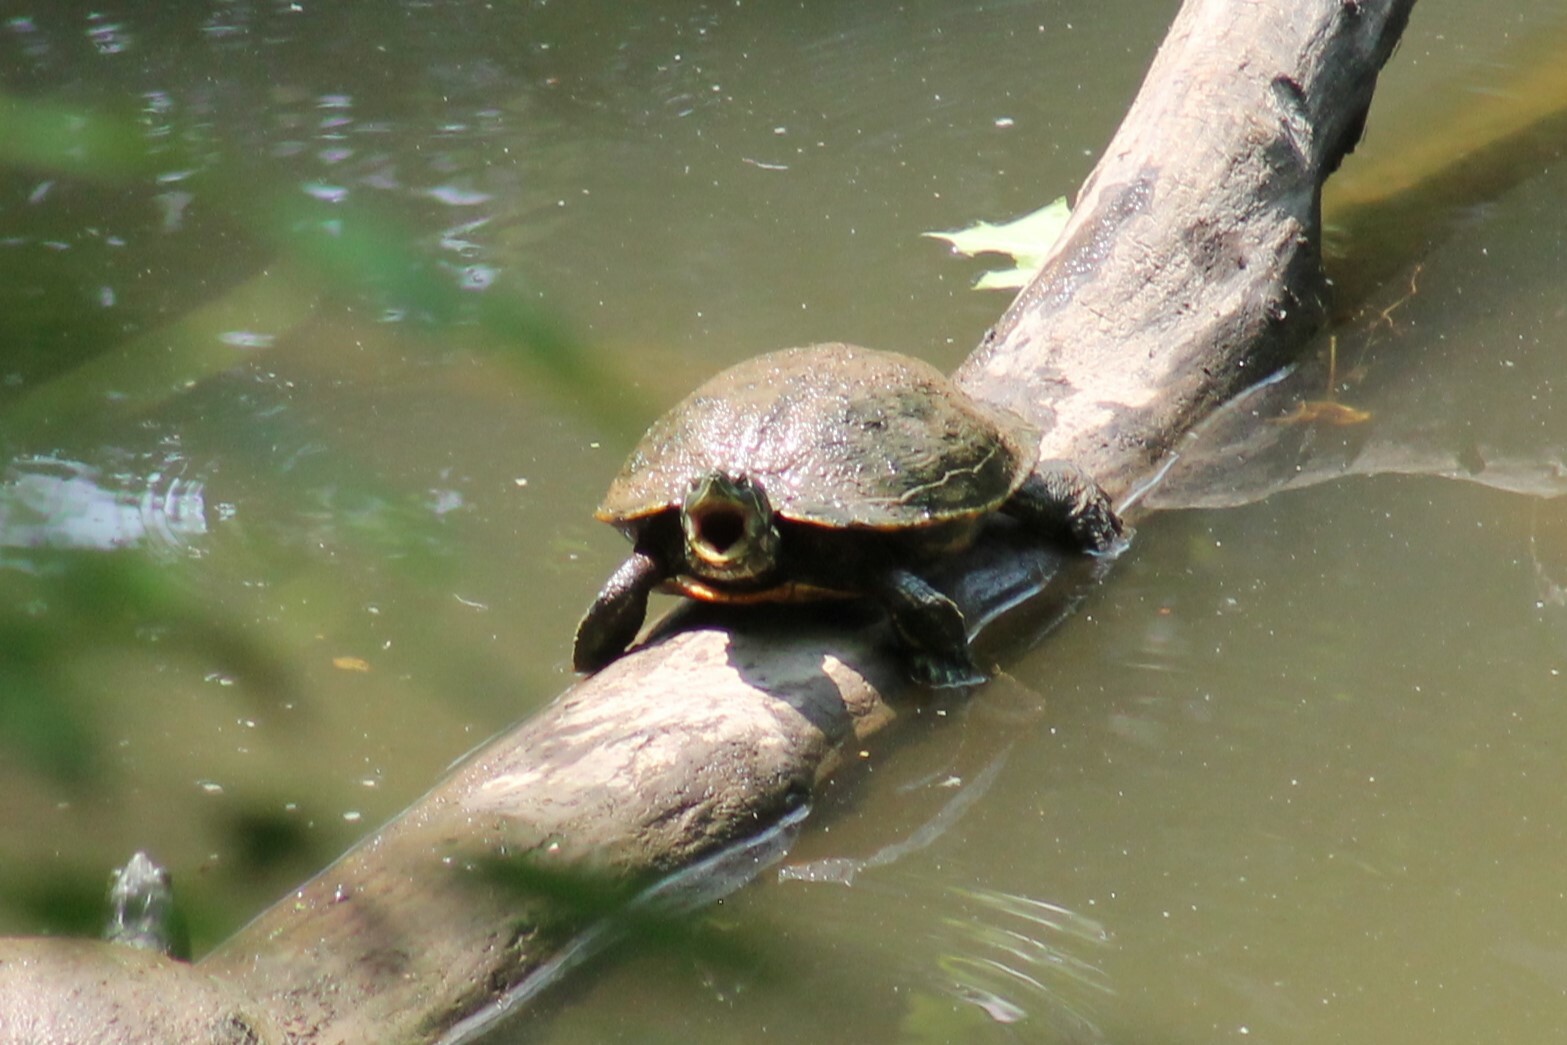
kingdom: Animalia
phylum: Chordata
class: Testudines
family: Emydidae
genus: Trachemys
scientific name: Trachemys scripta
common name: Slider
